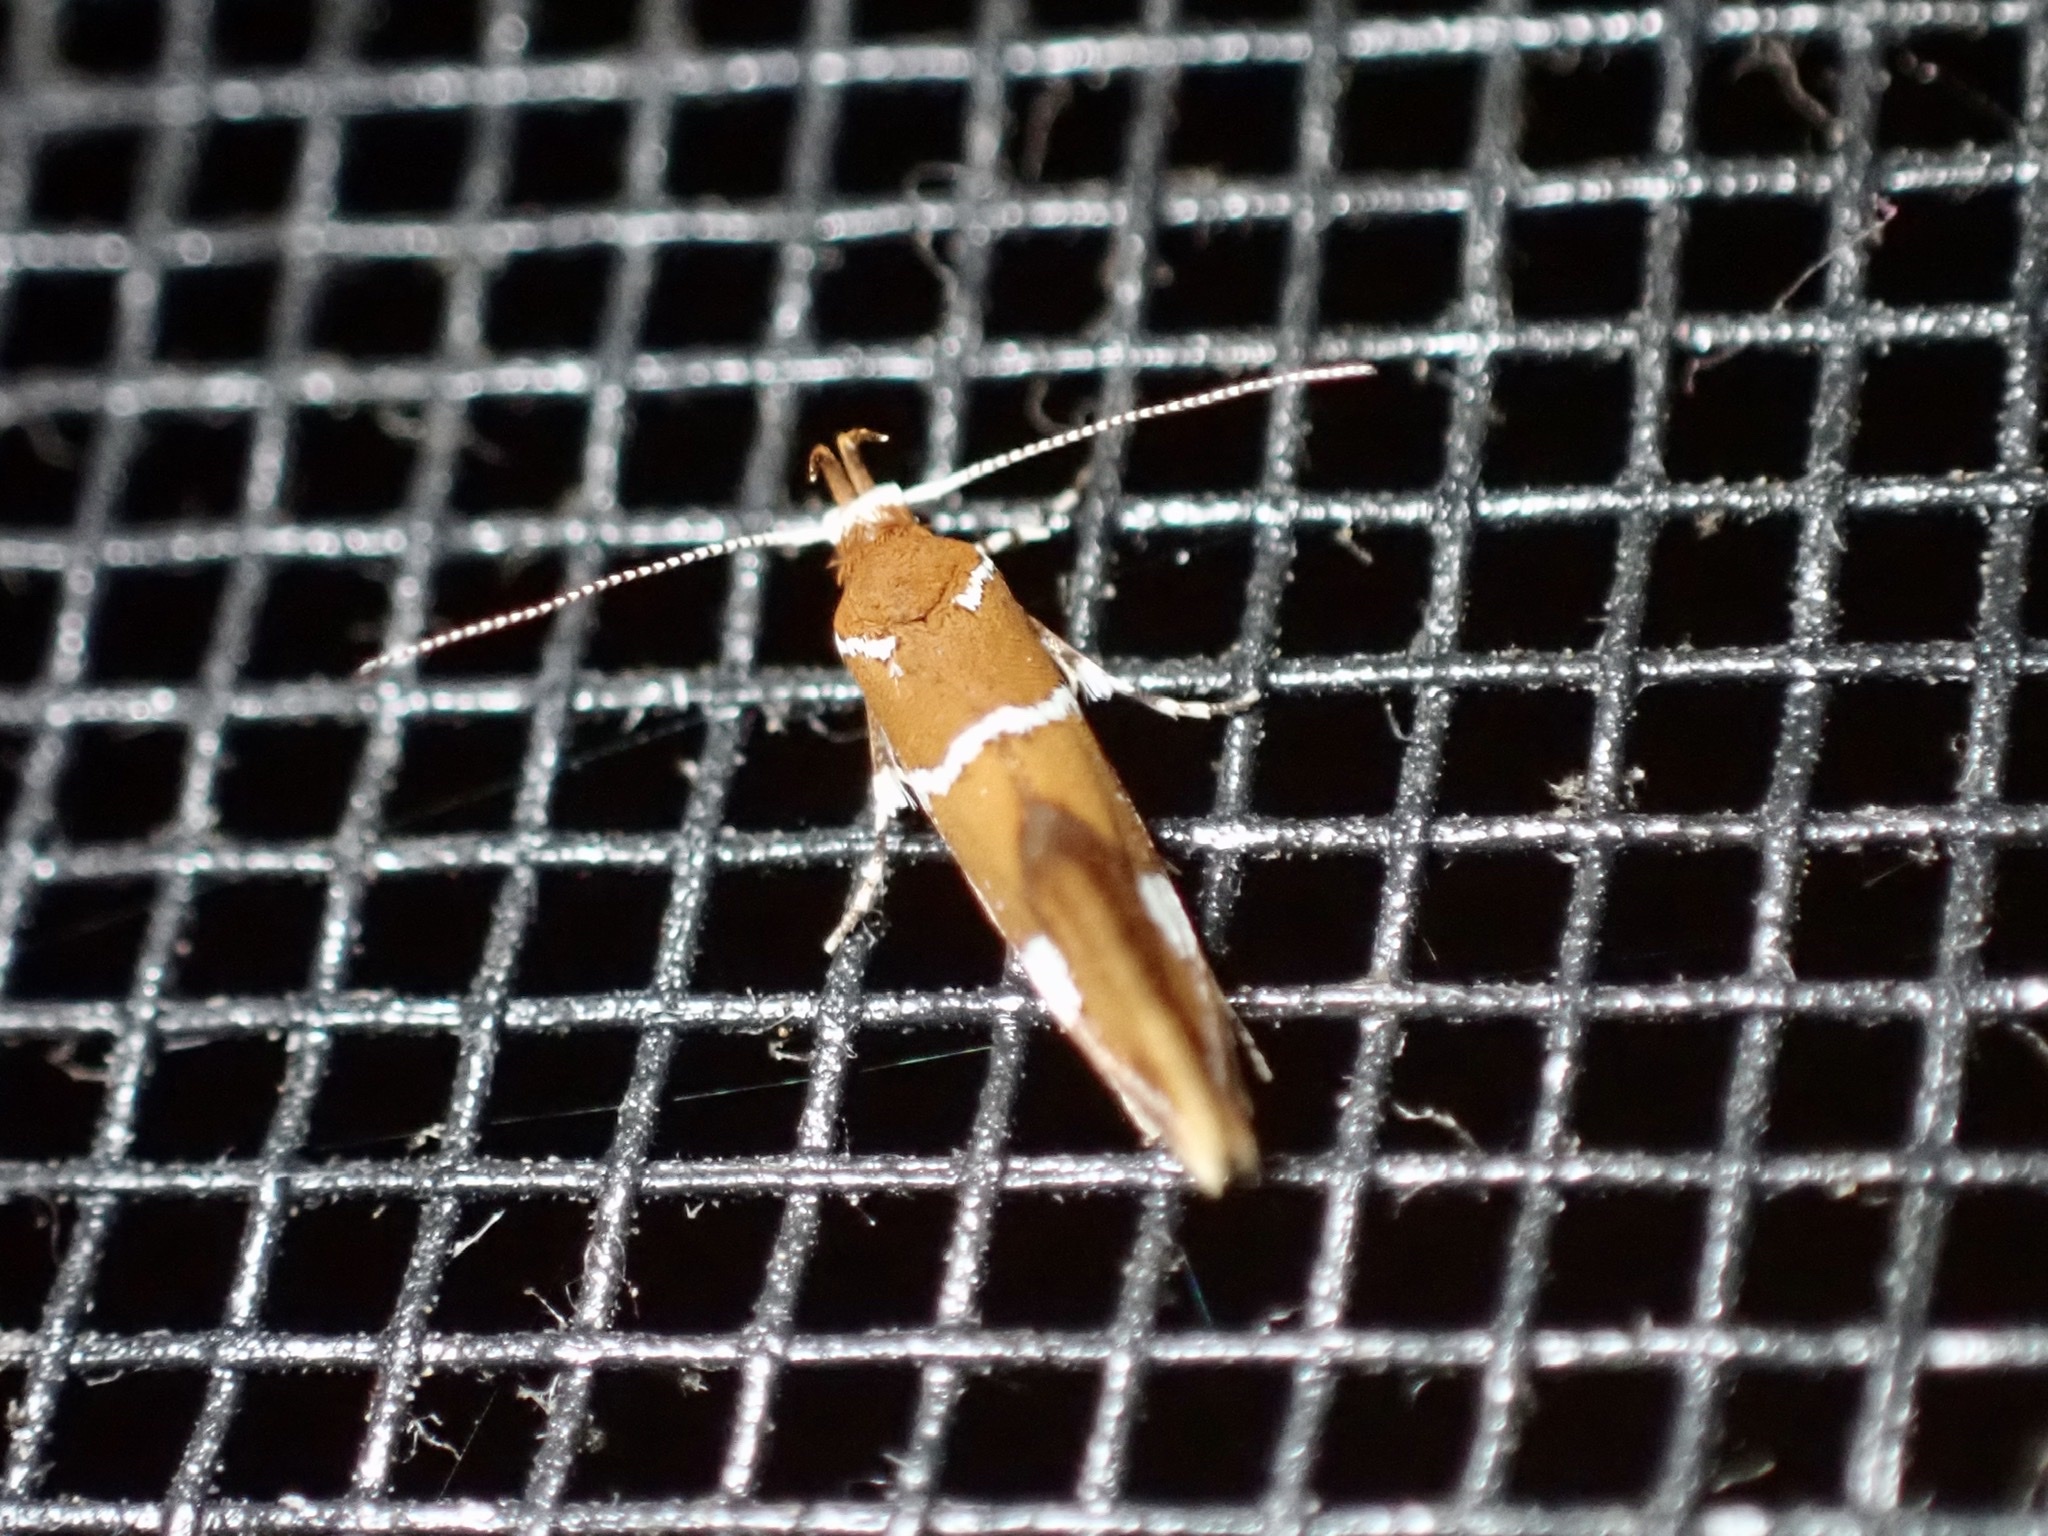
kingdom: Animalia
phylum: Arthropoda
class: Insecta
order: Lepidoptera
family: Oecophoridae
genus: Promalactis
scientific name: Promalactis suzukiella
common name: Moth
